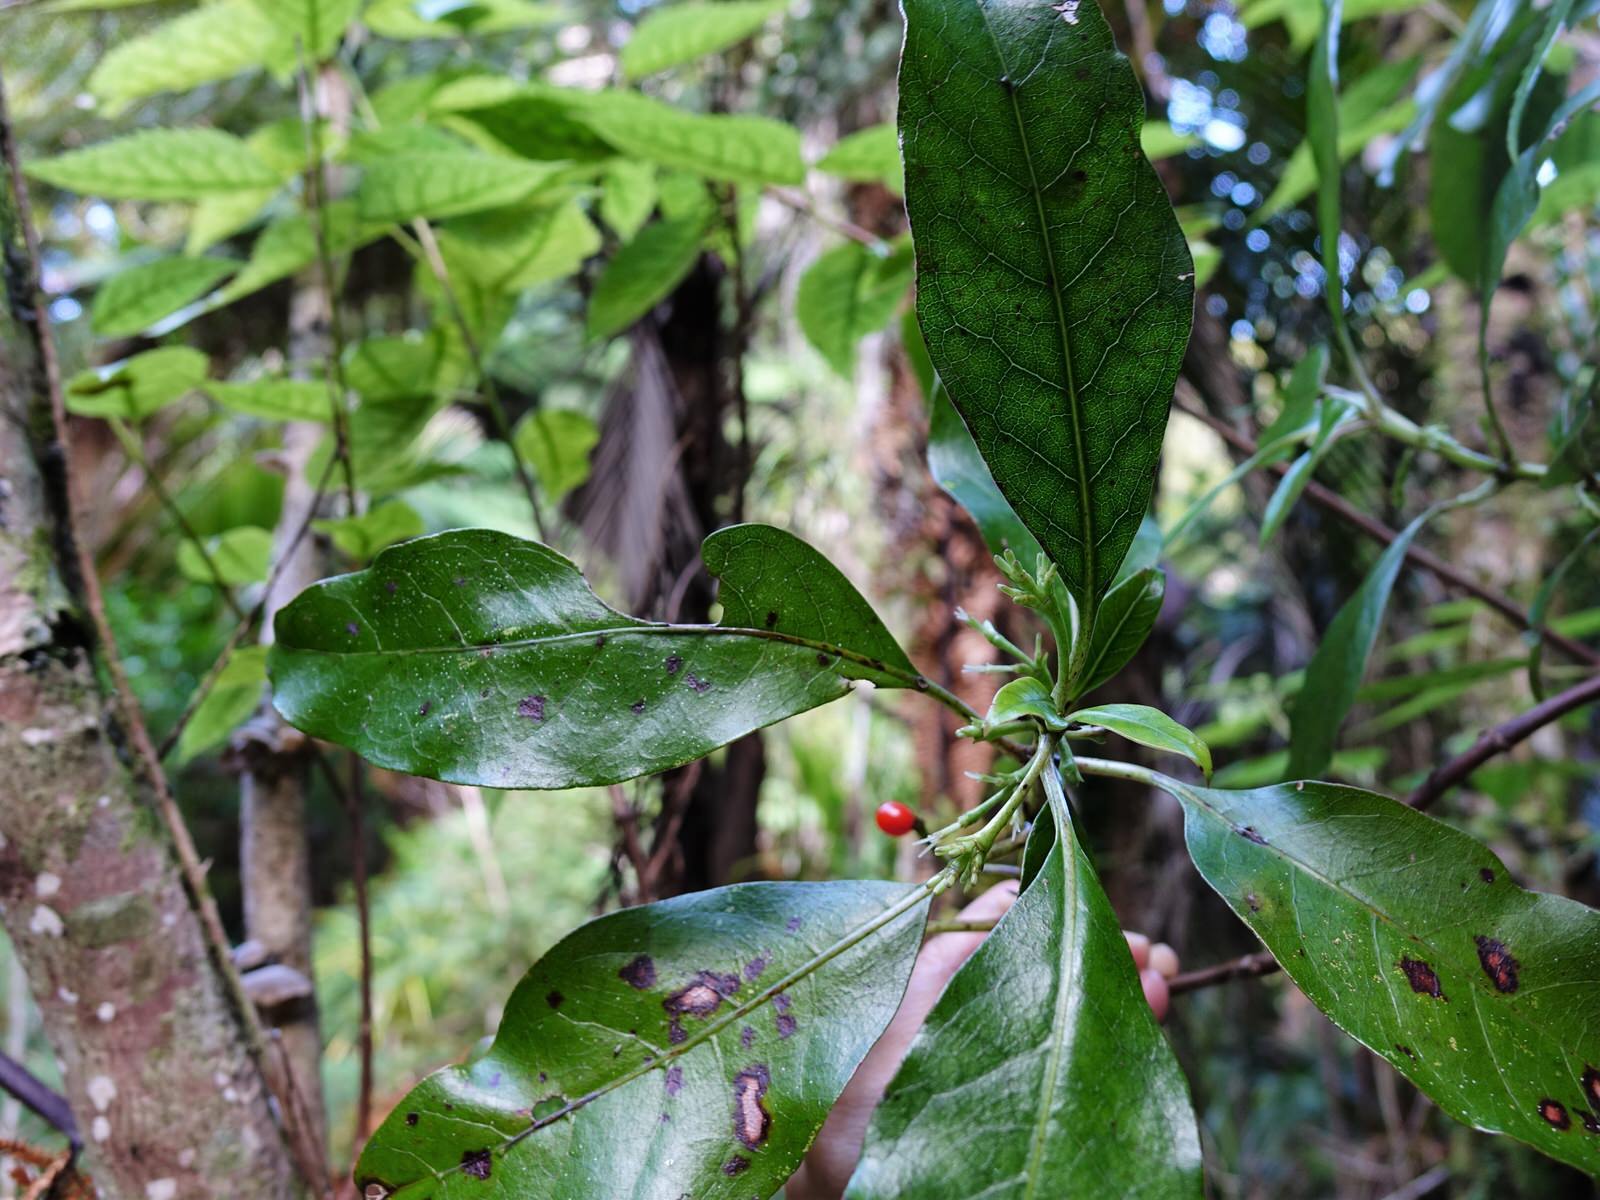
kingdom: Plantae
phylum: Tracheophyta
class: Magnoliopsida
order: Gentianales
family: Rubiaceae
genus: Coprosma
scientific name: Coprosma autumnalis
